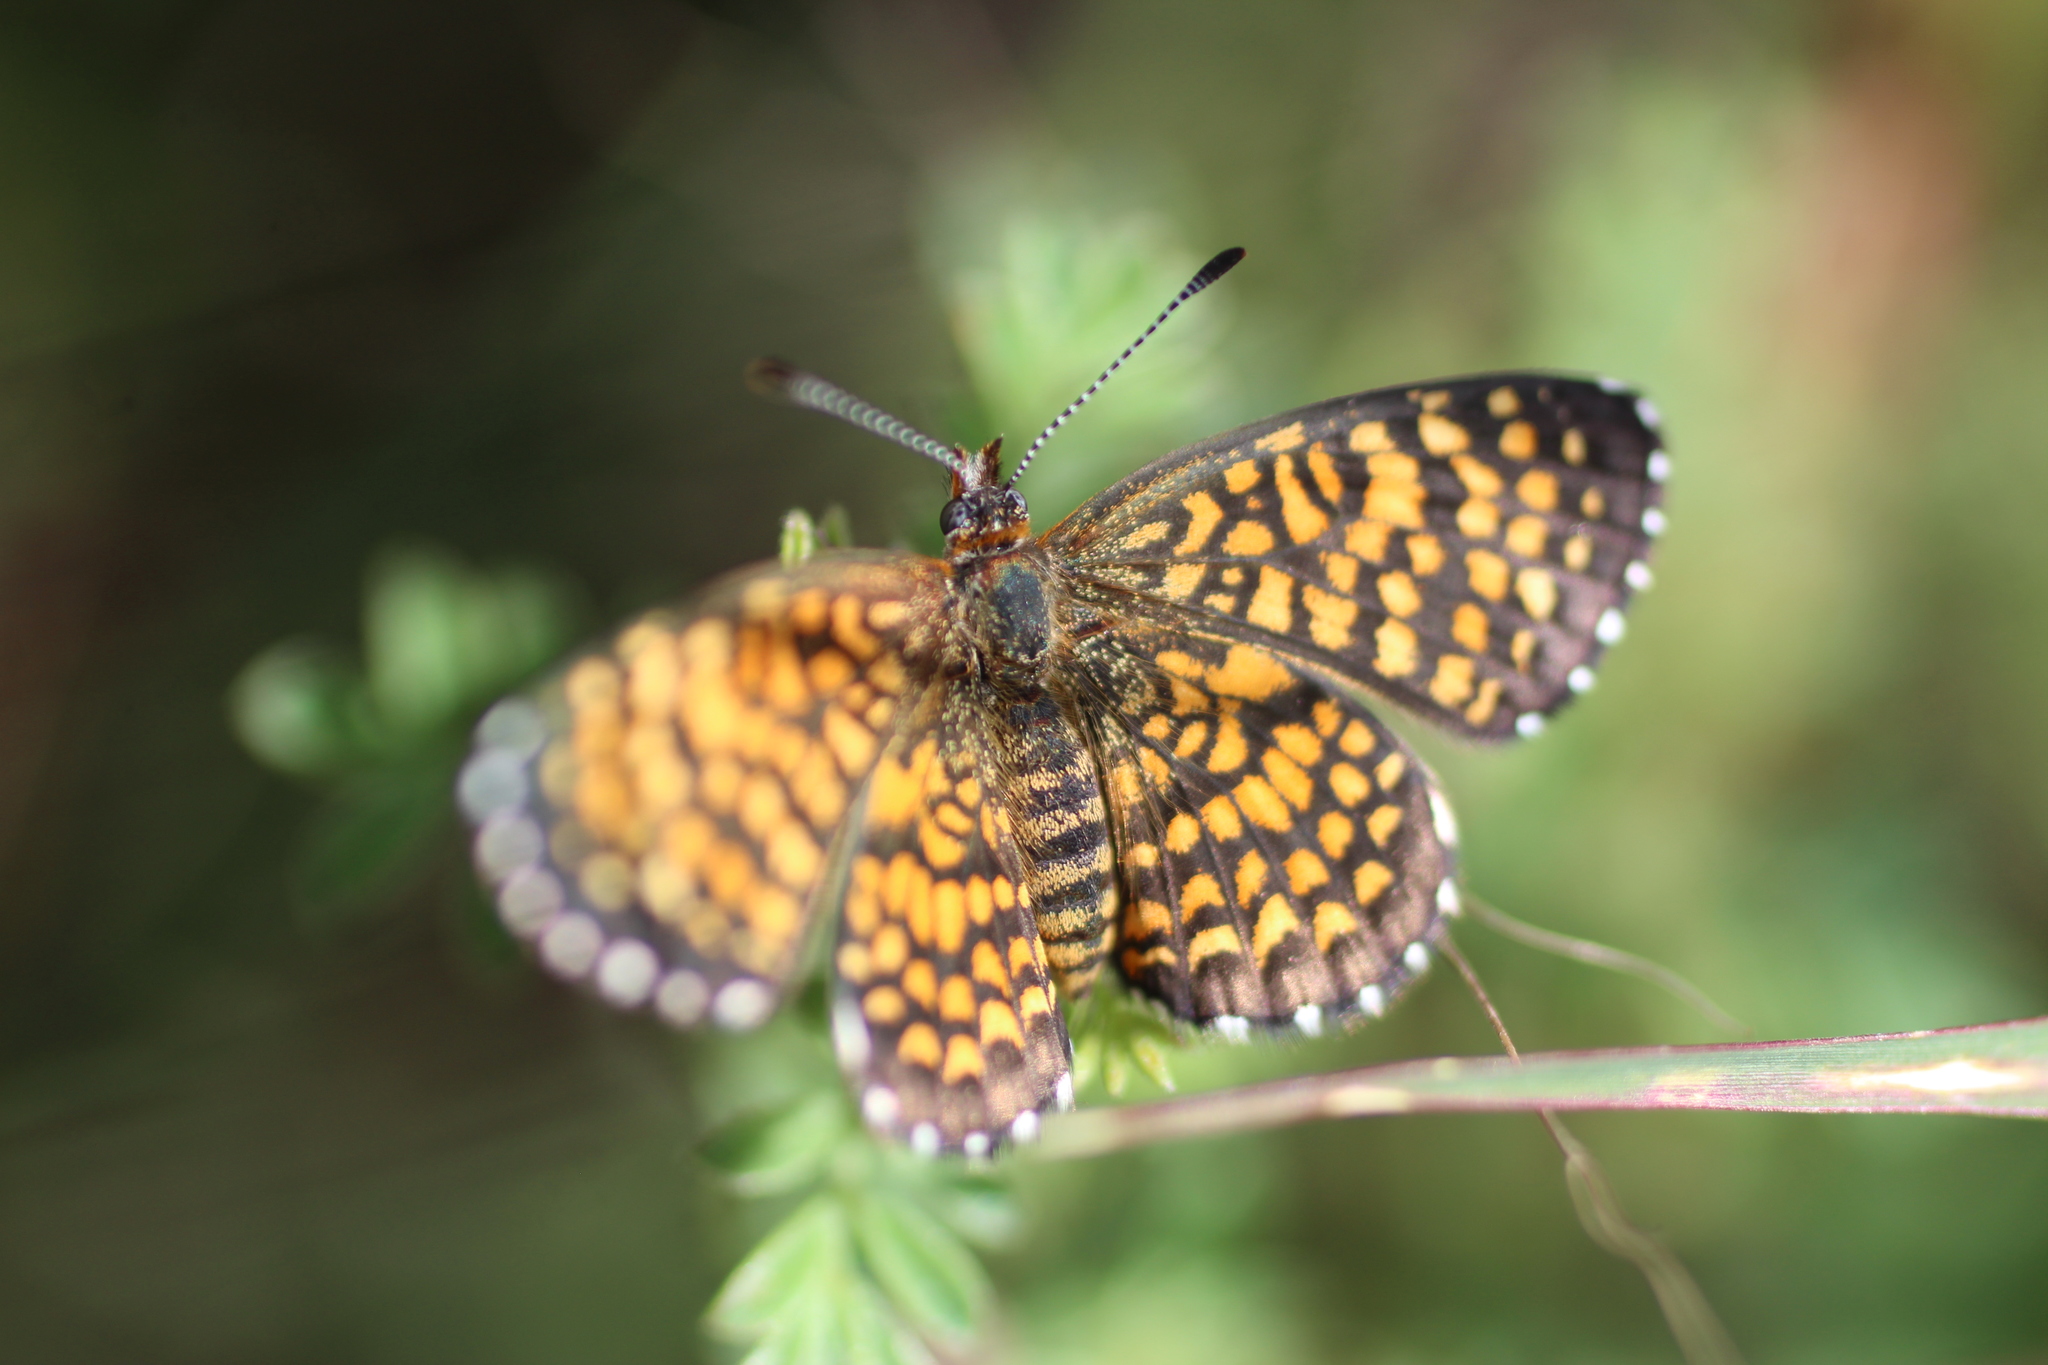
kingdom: Animalia
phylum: Arthropoda
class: Insecta
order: Lepidoptera
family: Nymphalidae
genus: Texola
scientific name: Texola elada
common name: Elada checkerspot
